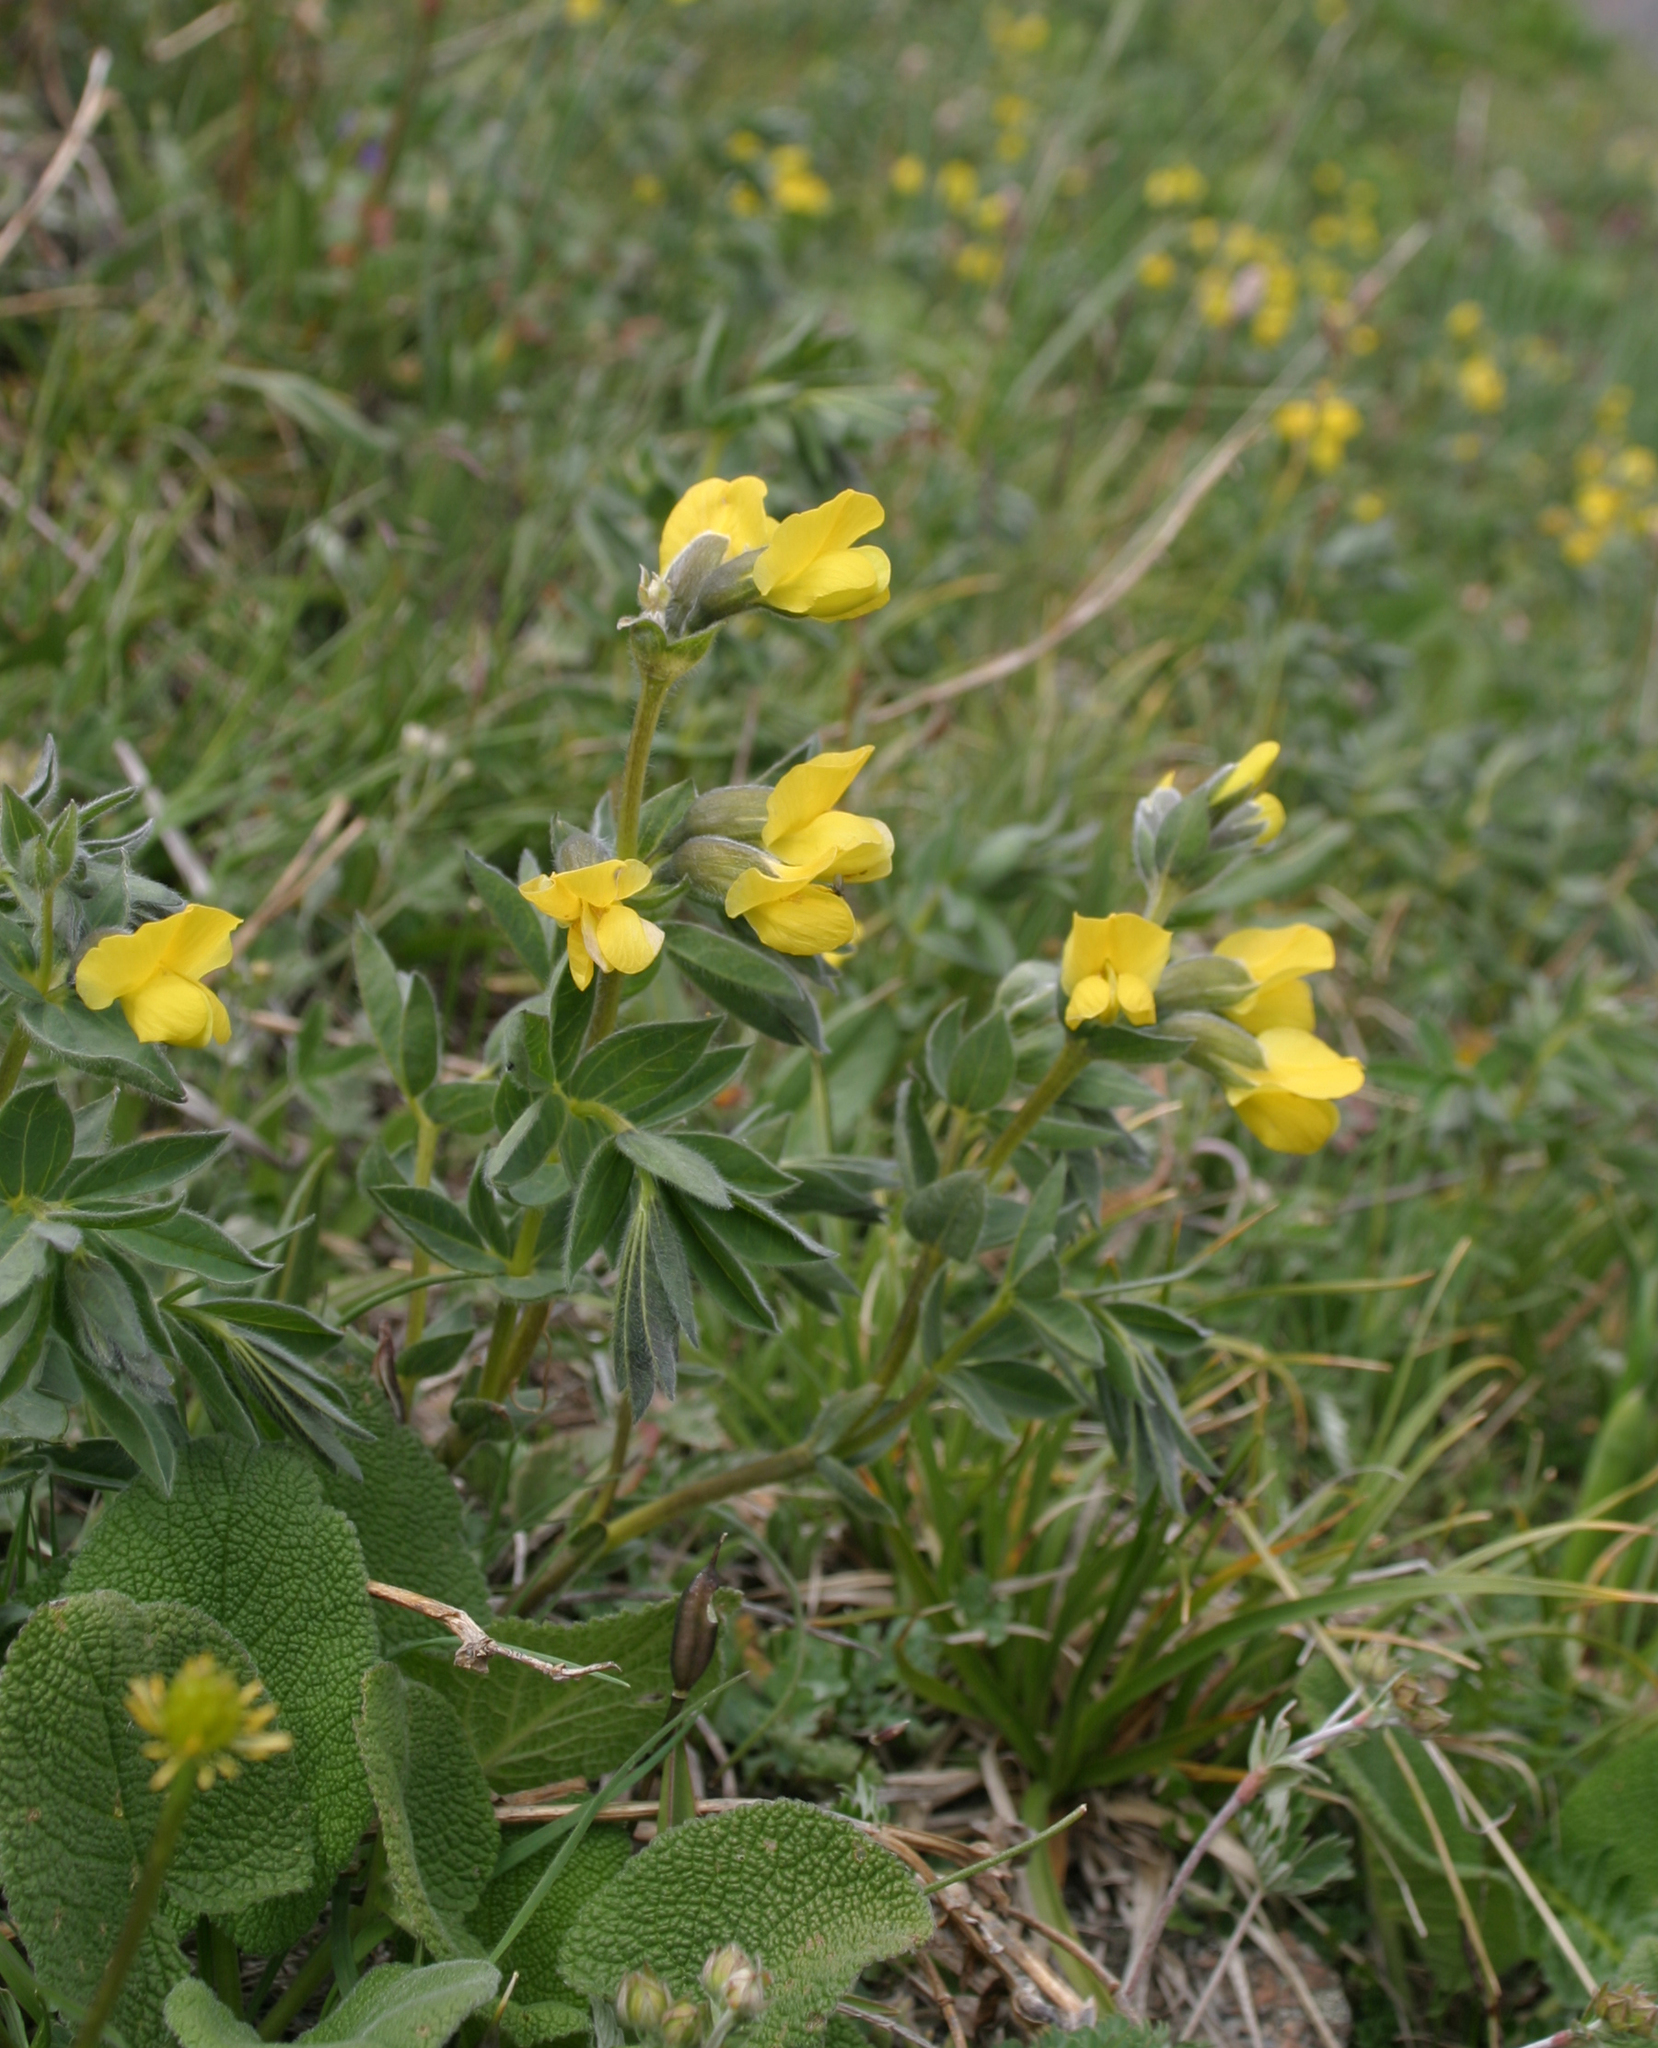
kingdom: Plantae
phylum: Tracheophyta
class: Magnoliopsida
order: Fabales
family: Fabaceae
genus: Thermopsis
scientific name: Thermopsis alpina
